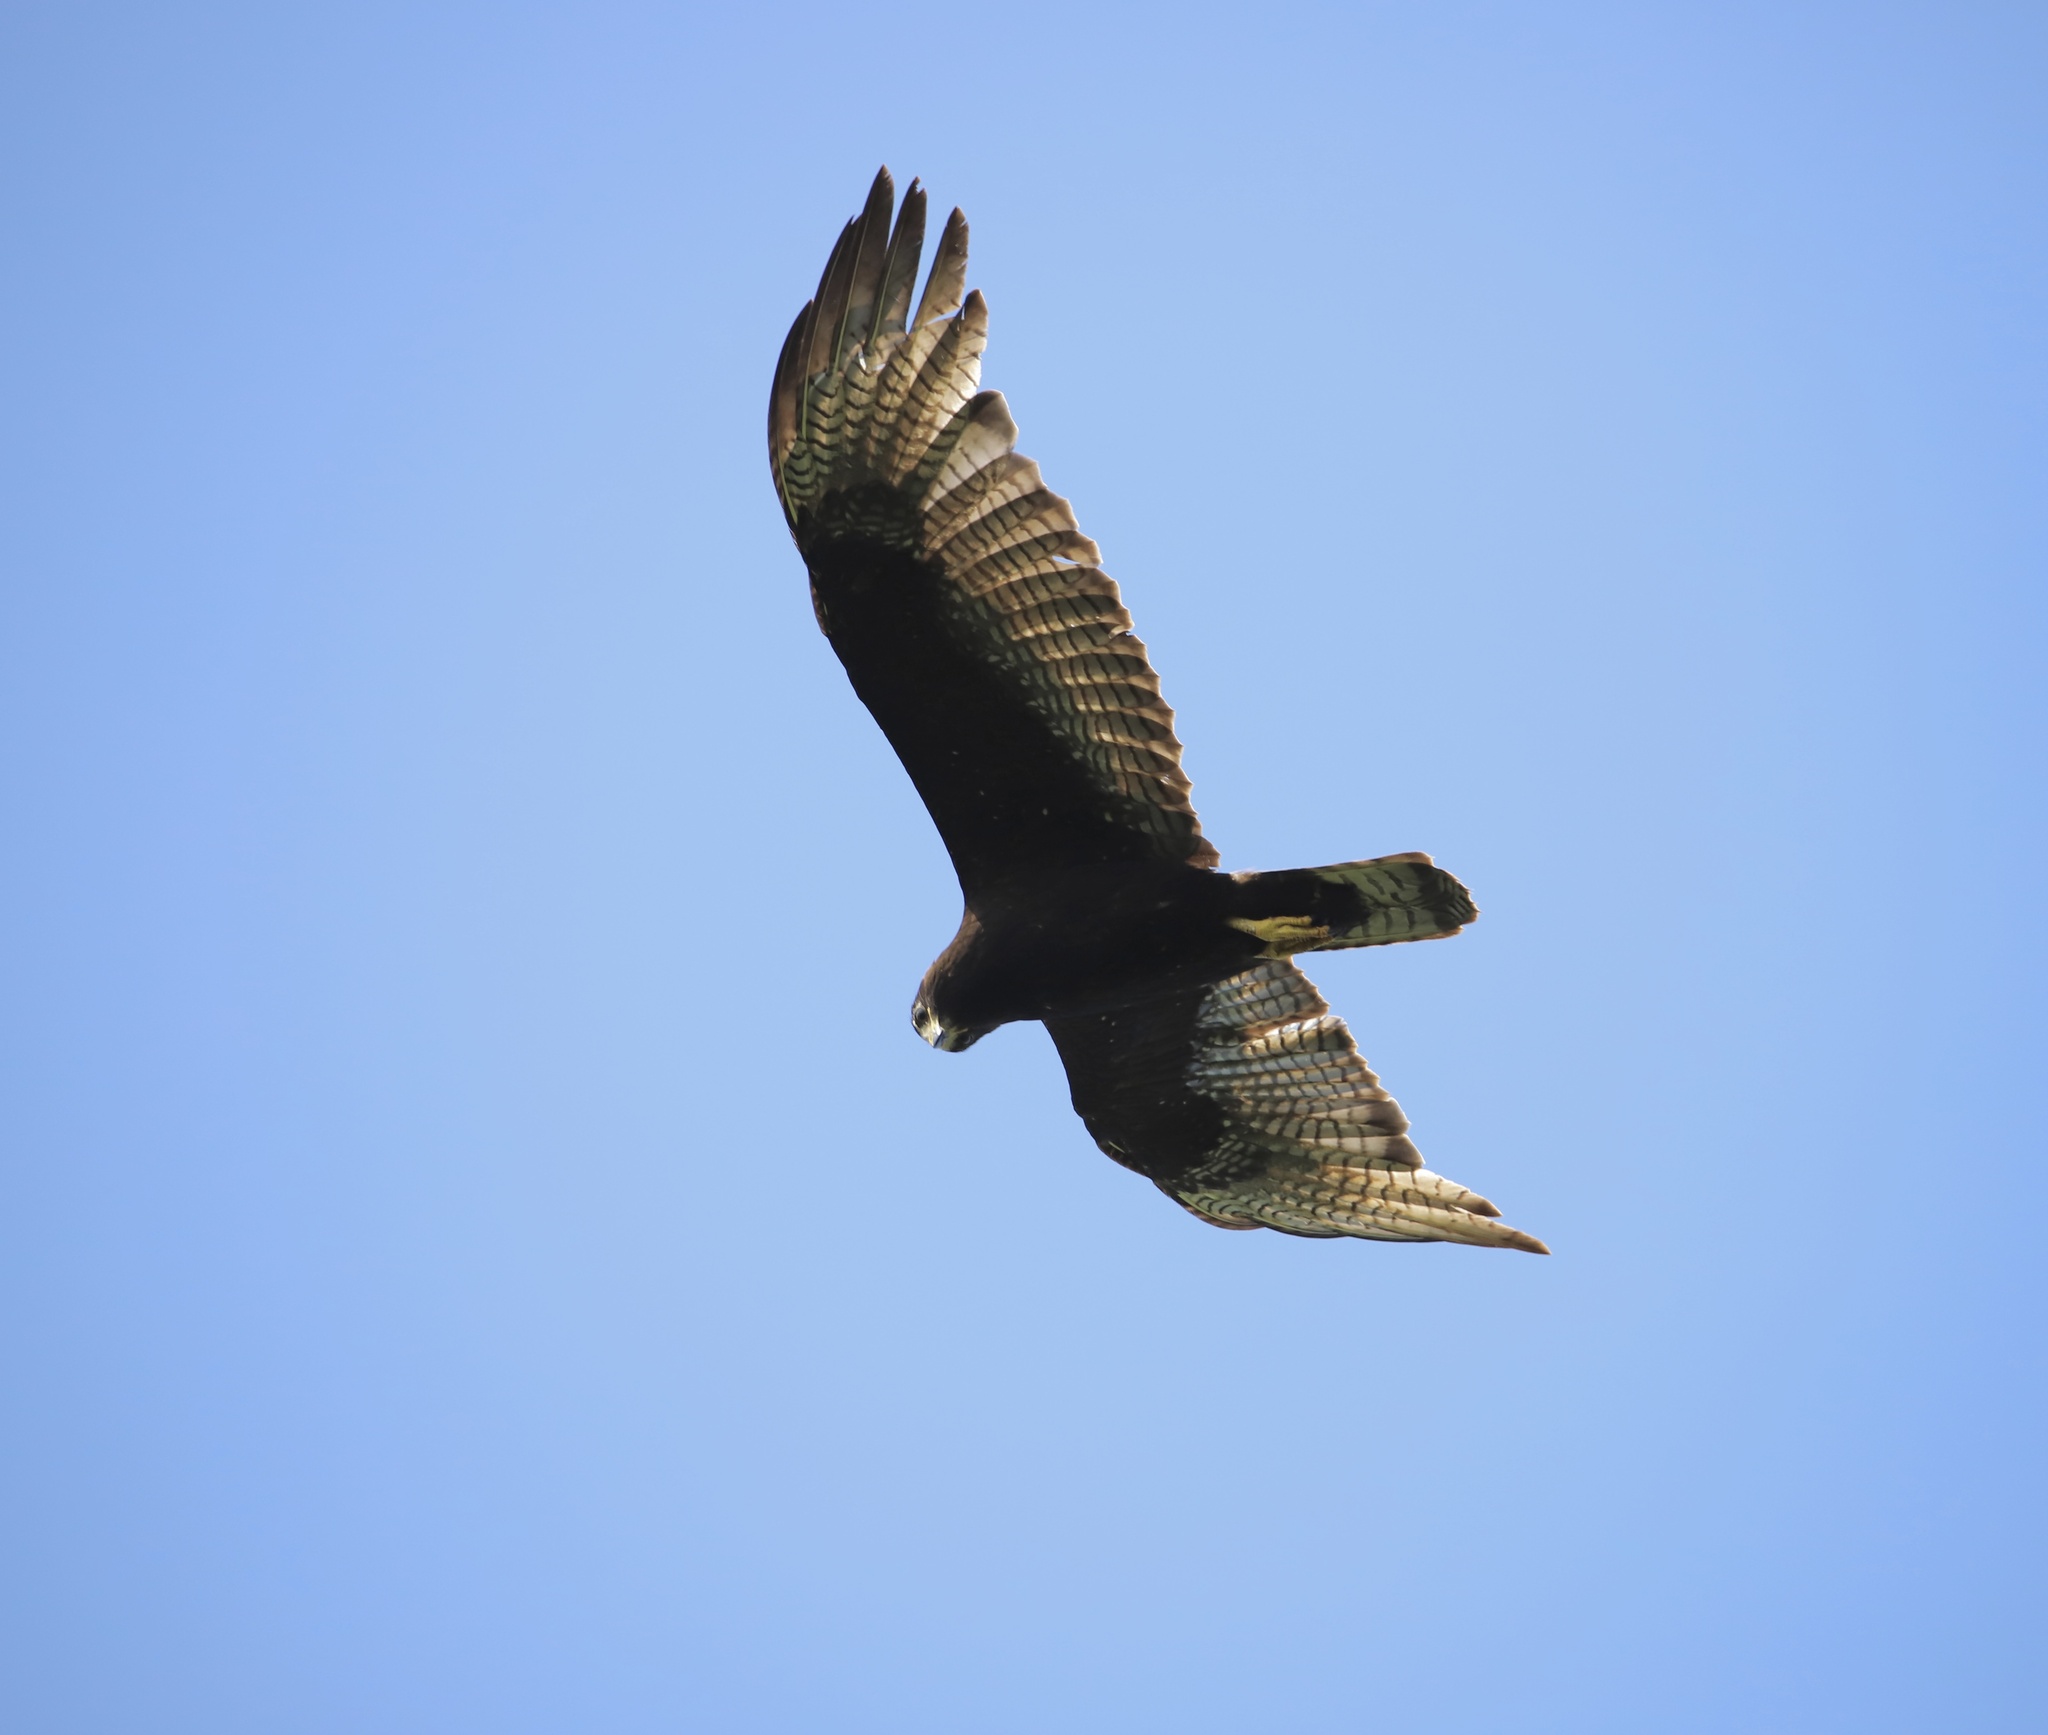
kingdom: Animalia
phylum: Chordata
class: Aves
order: Accipitriformes
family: Accipitridae
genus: Buteo
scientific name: Buteo albonotatus
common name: Zone-tailed hawk
